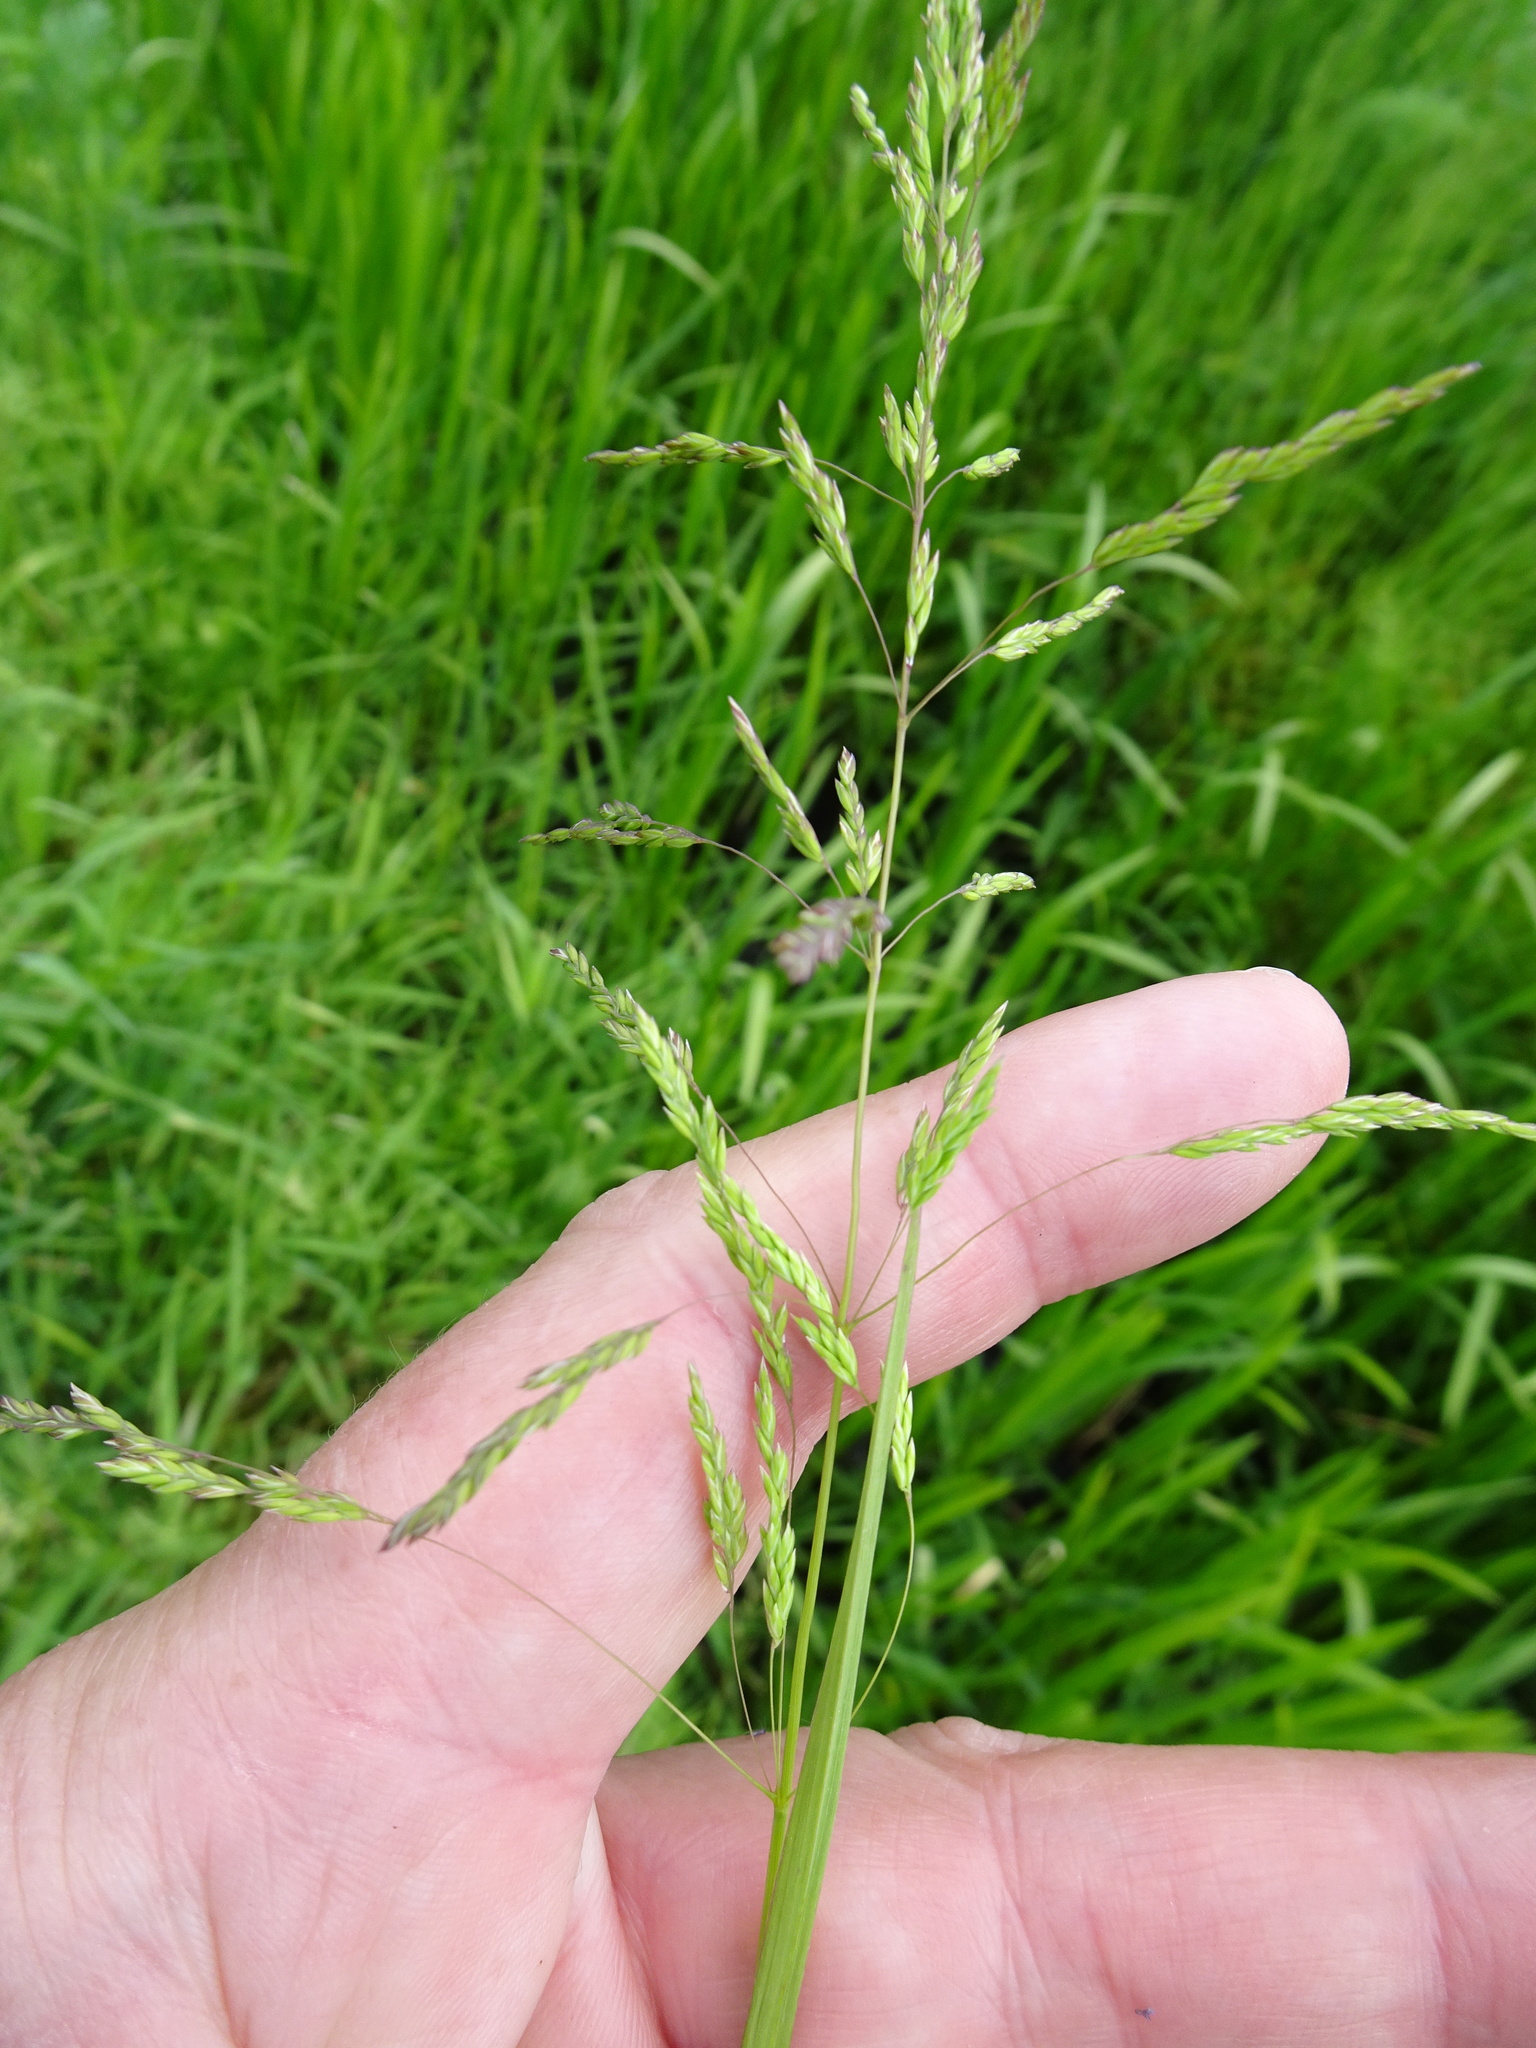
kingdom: Plantae
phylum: Tracheophyta
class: Liliopsida
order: Poales
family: Poaceae
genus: Poa
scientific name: Poa trivialis
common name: Rough bluegrass
